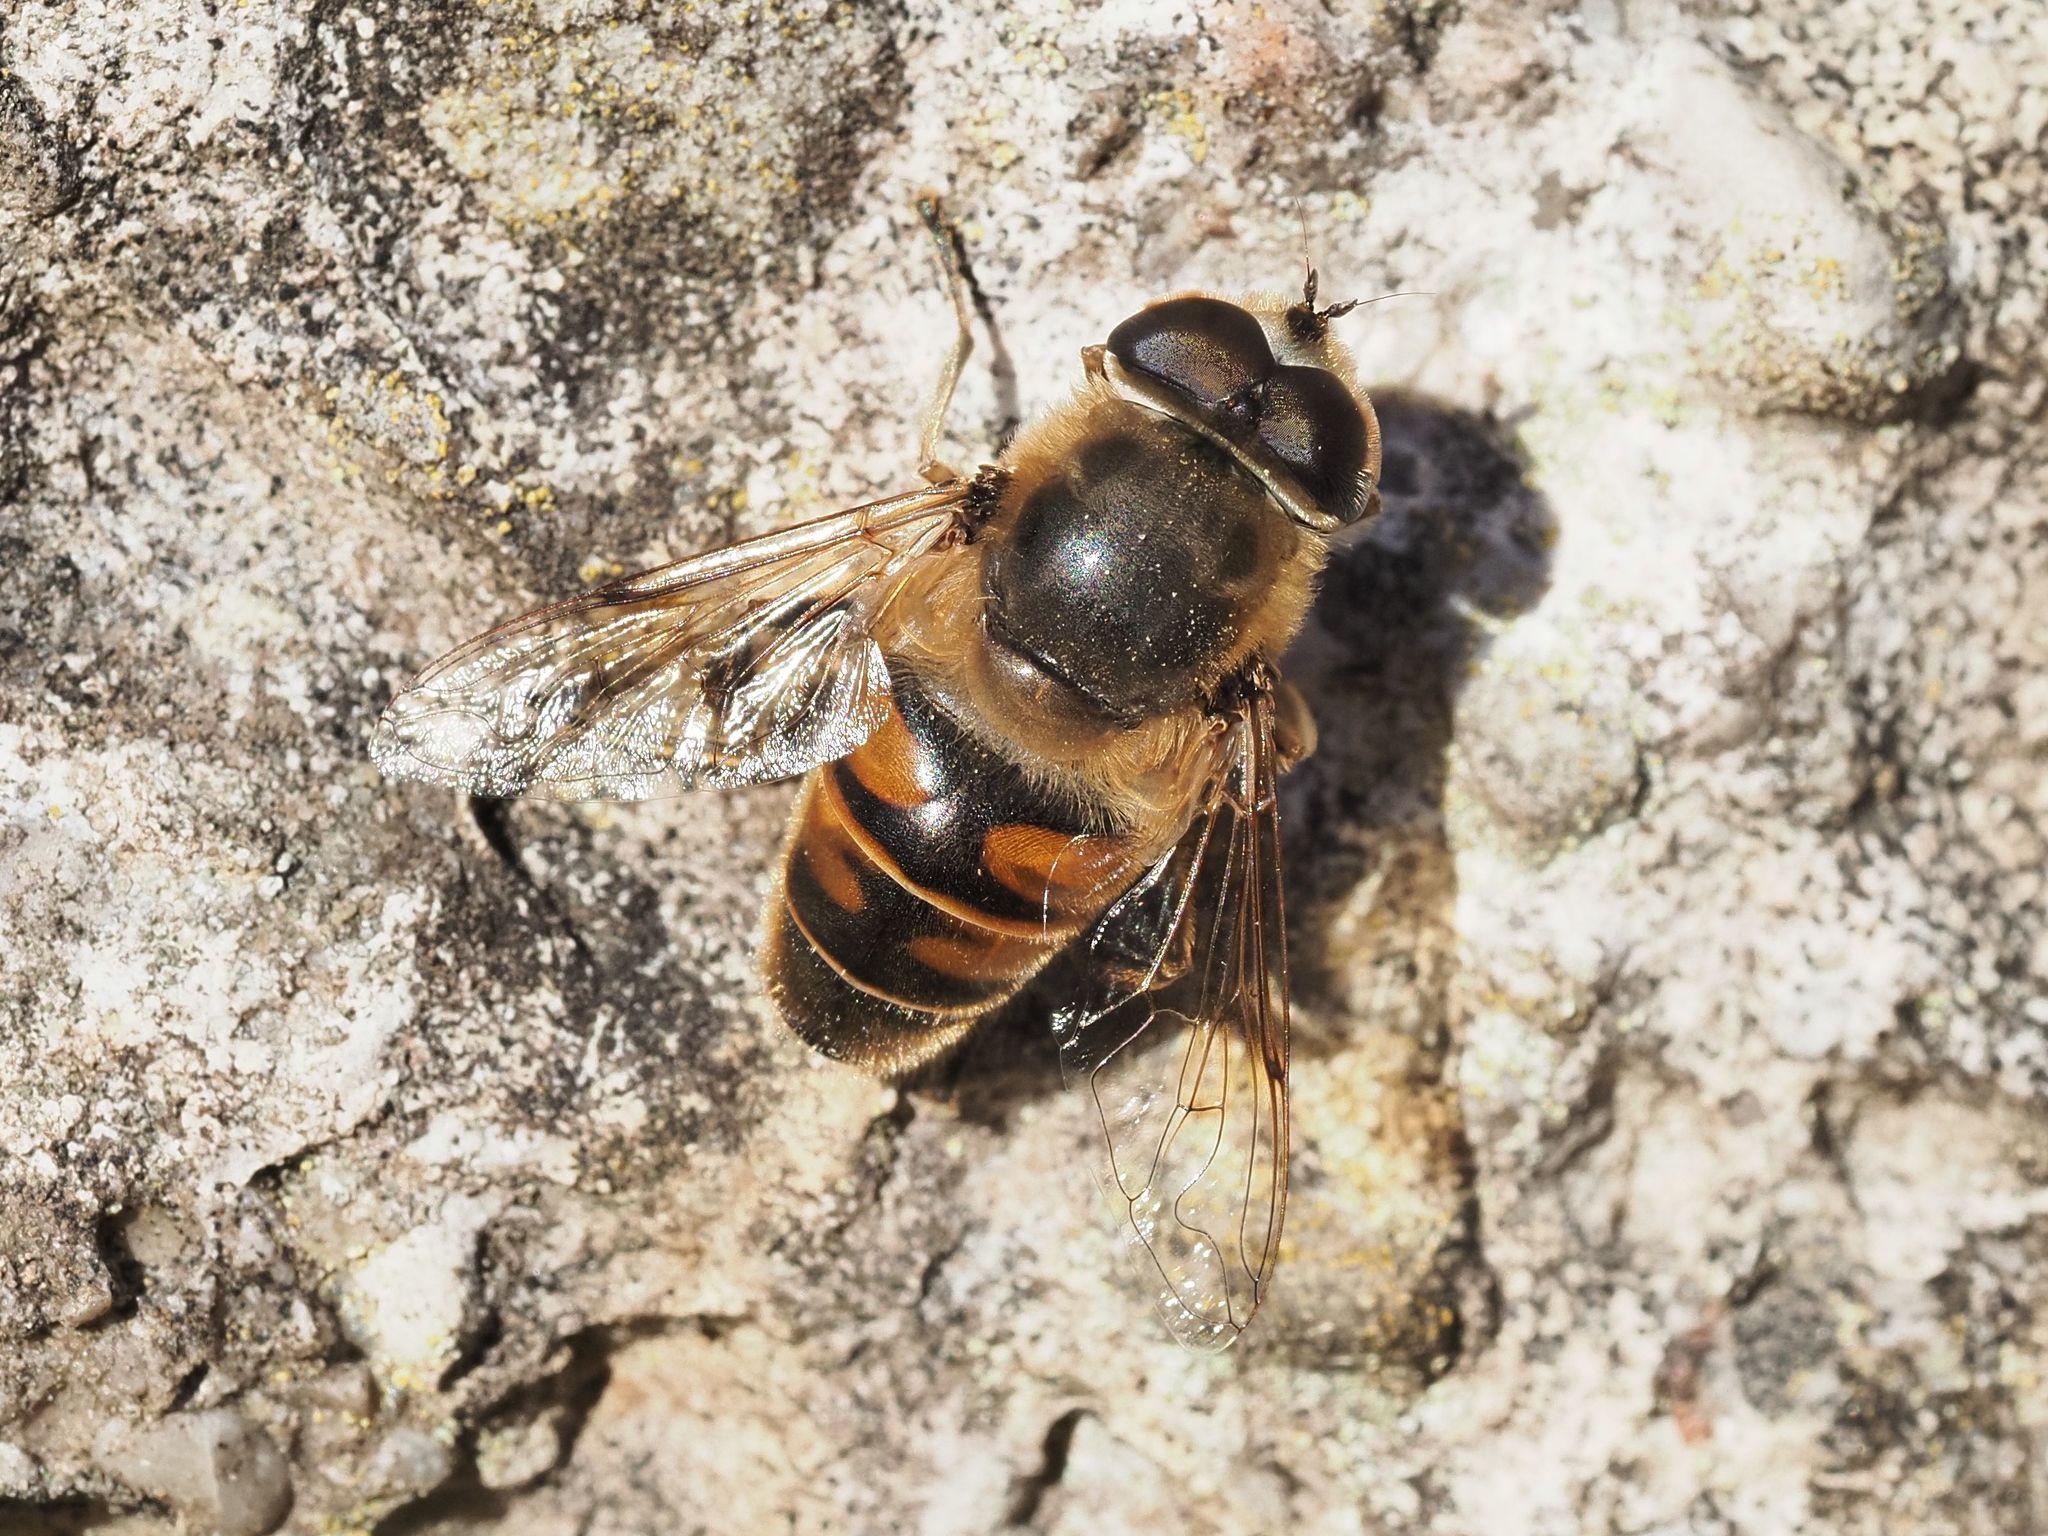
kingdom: Animalia
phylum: Arthropoda
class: Insecta
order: Diptera
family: Syrphidae
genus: Eristalis
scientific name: Eristalis tenax
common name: Drone fly
